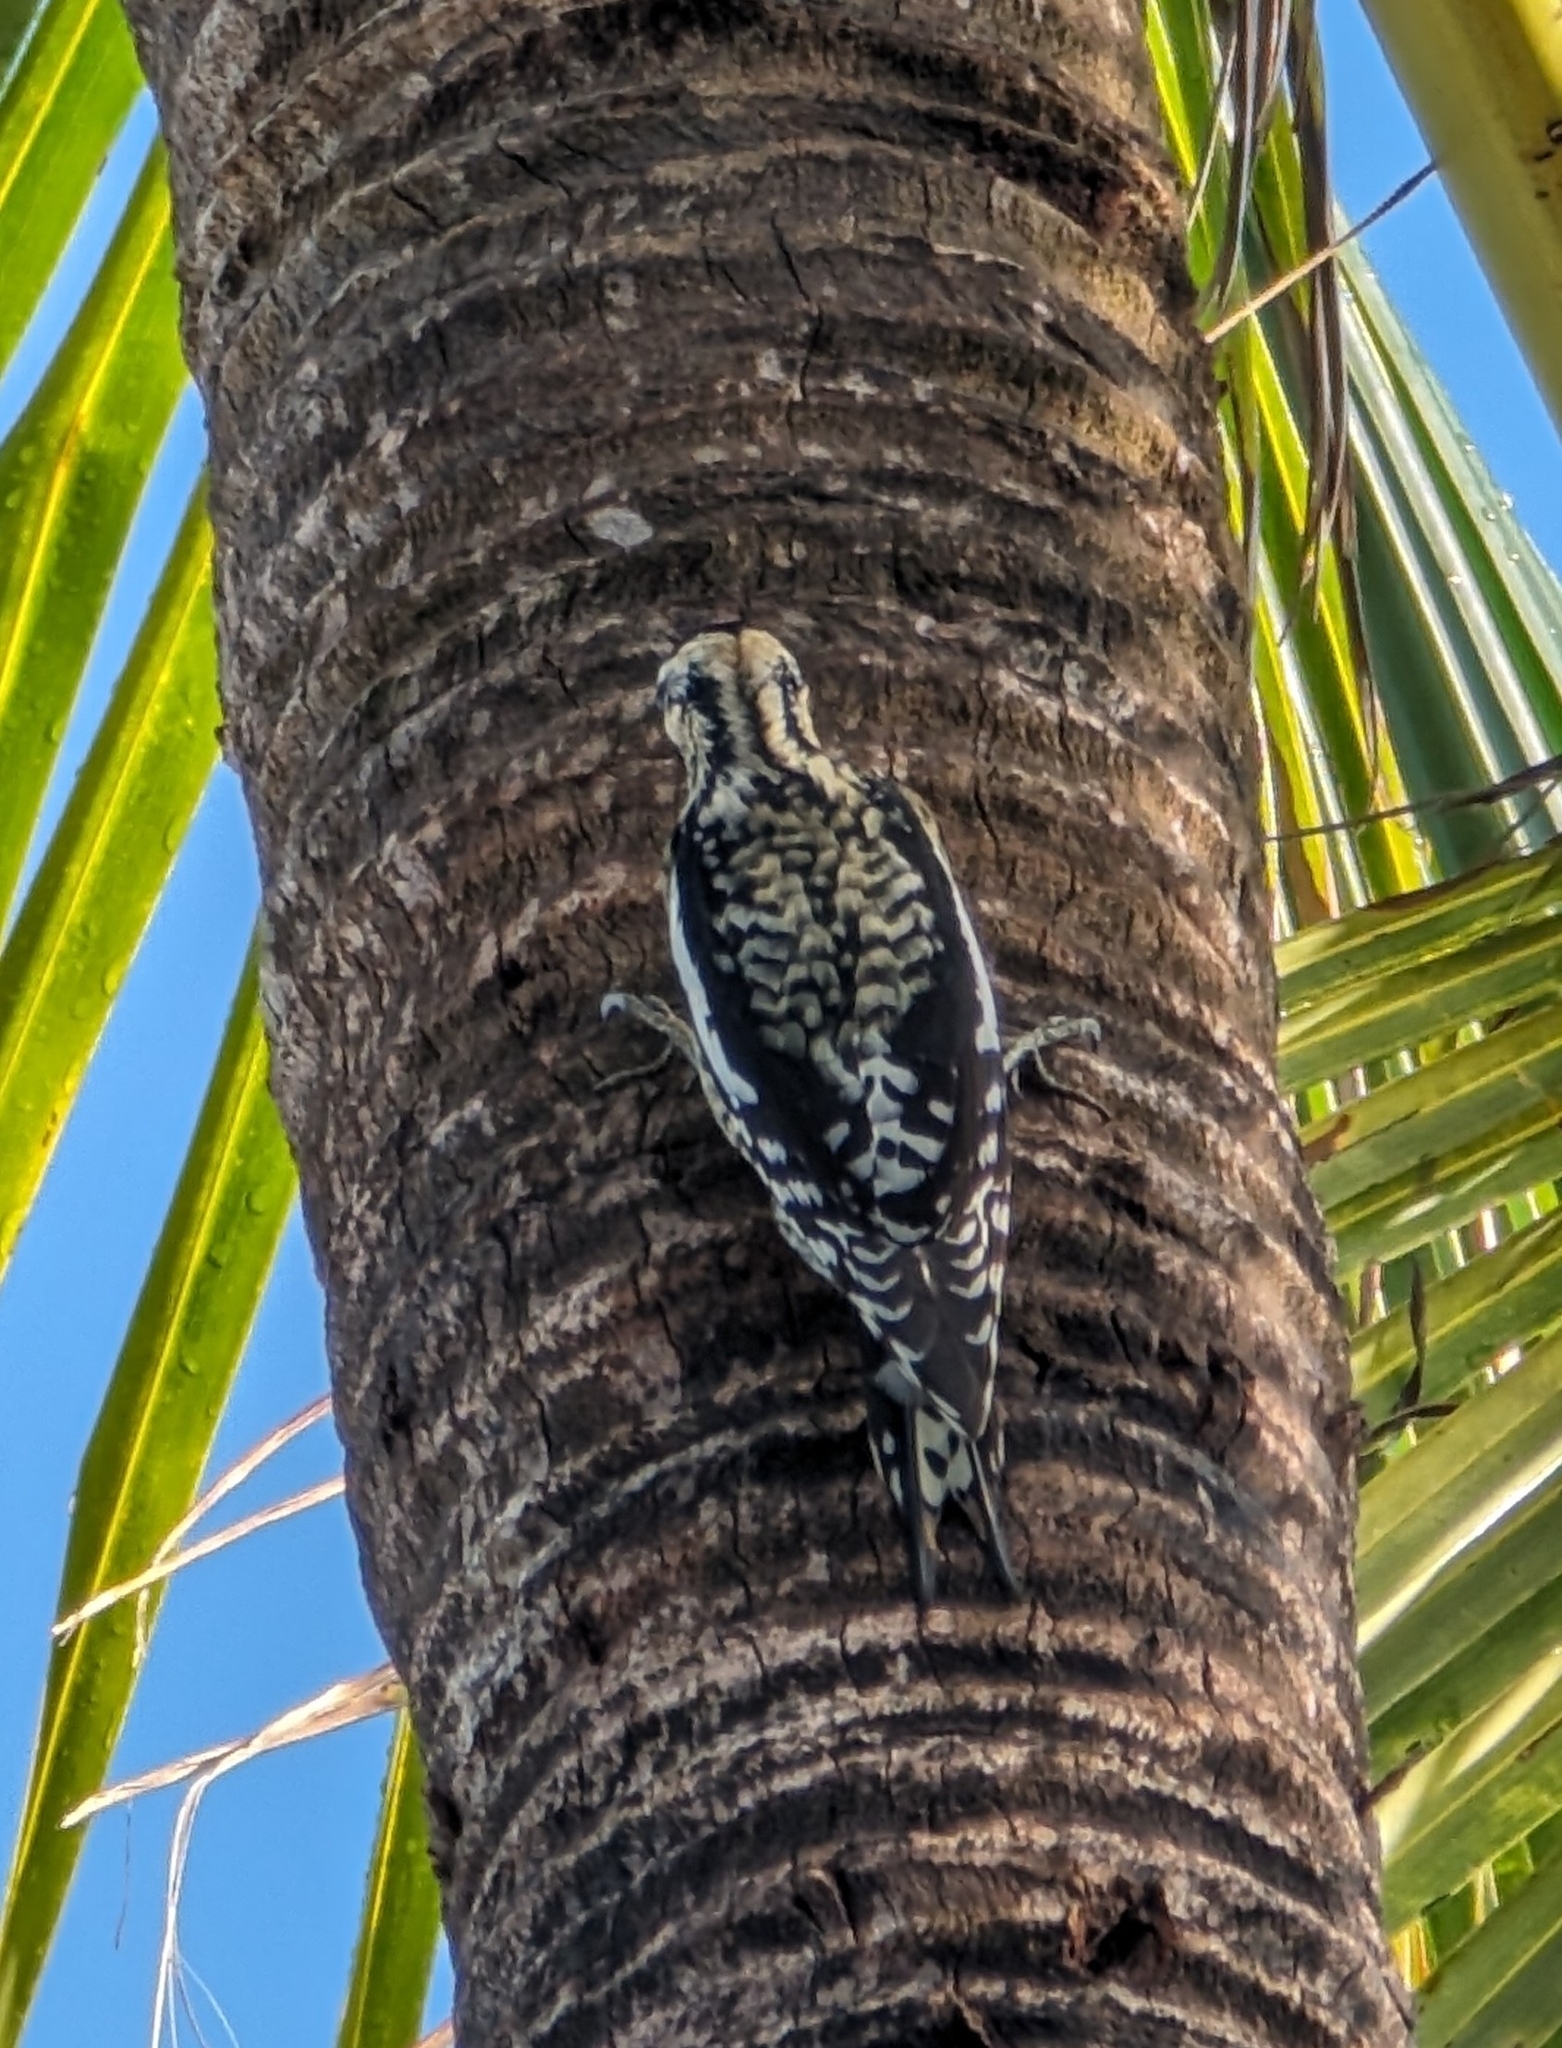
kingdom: Animalia
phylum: Chordata
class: Aves
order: Piciformes
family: Picidae
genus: Sphyrapicus
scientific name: Sphyrapicus varius
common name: Yellow-bellied sapsucker
